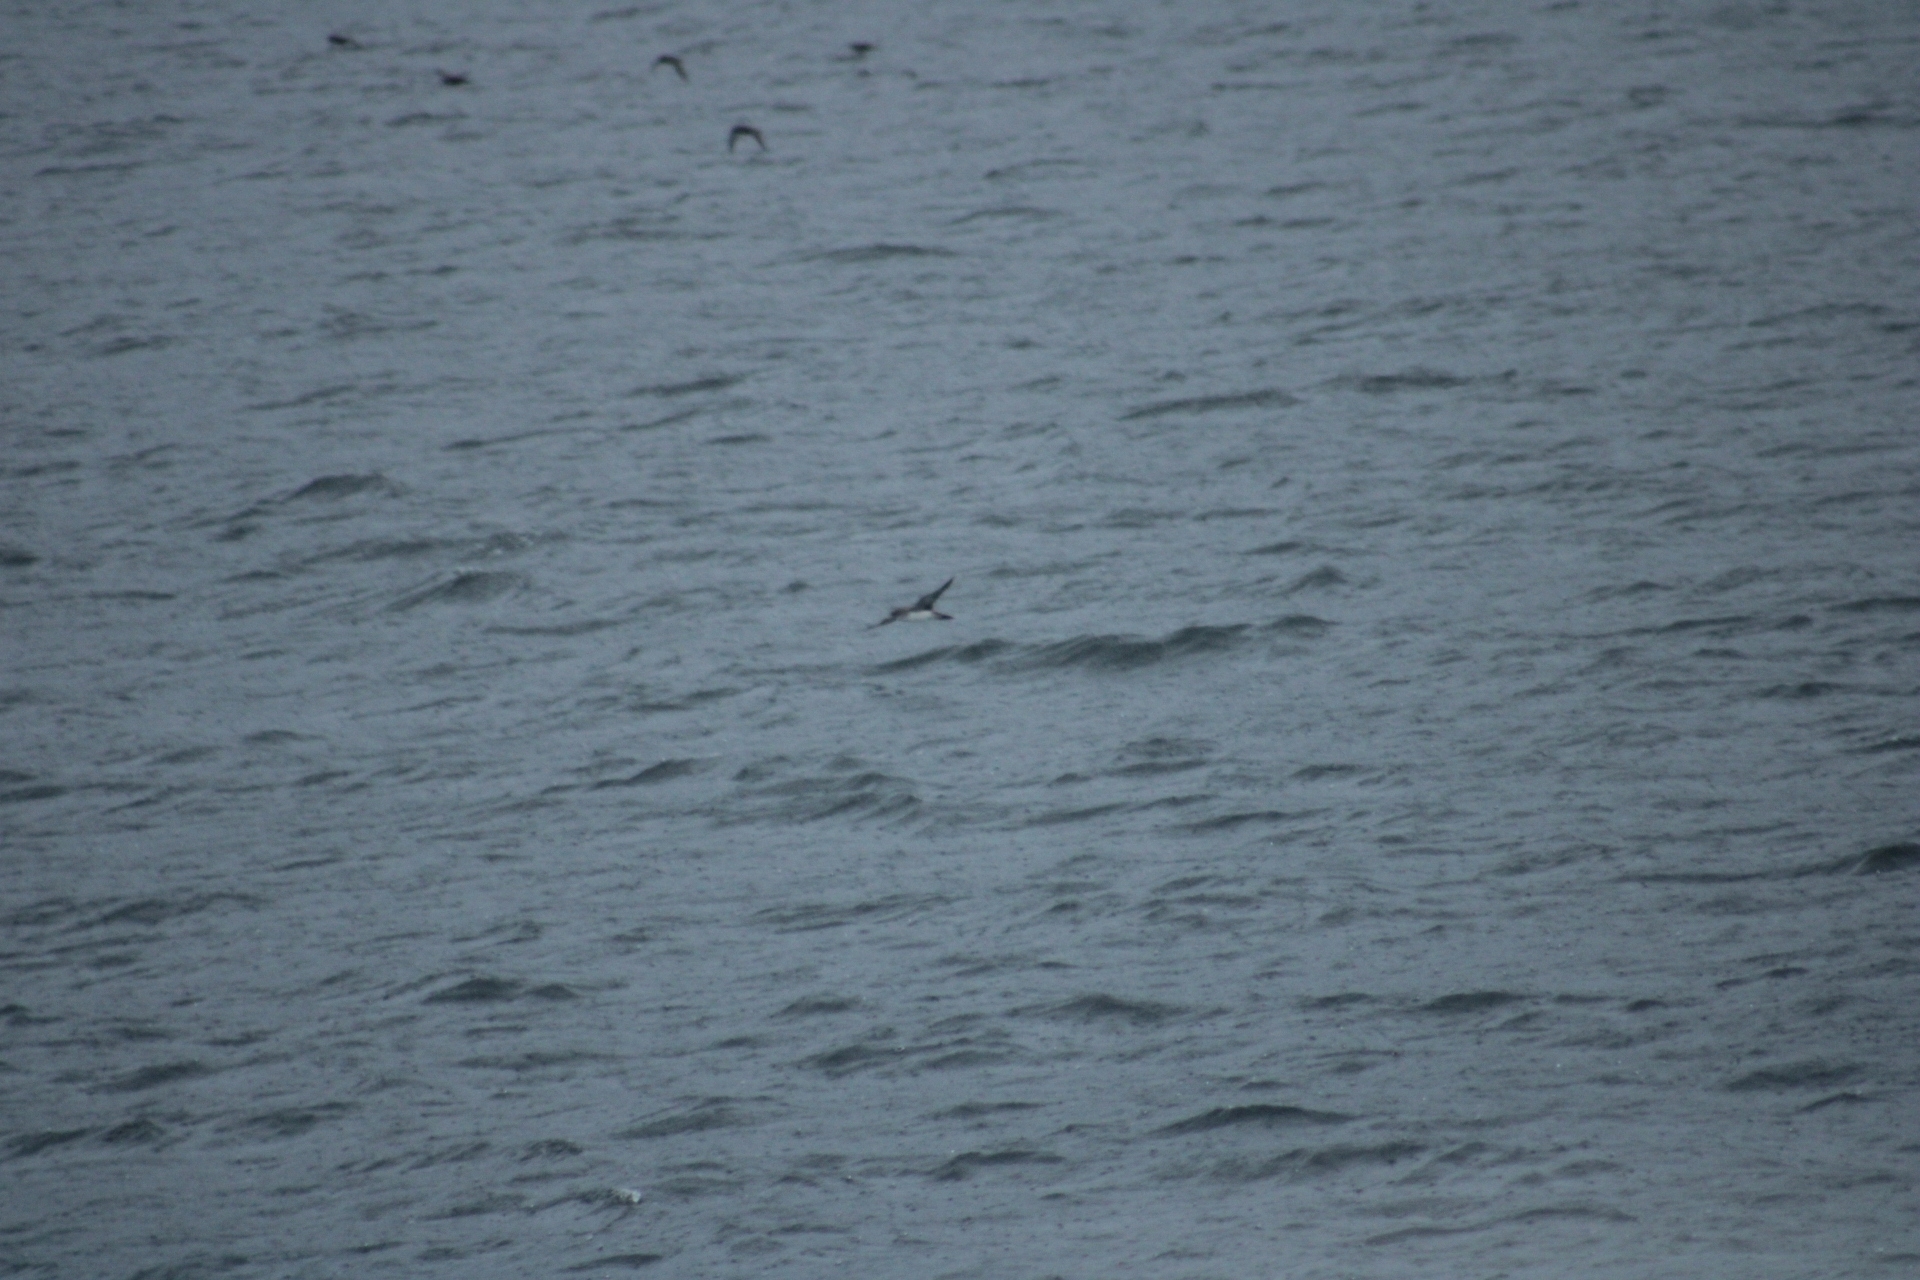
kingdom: Animalia
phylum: Chordata
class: Aves
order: Procellariiformes
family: Procellariidae
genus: Puffinus
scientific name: Puffinus creatopus
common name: Pink-footed shearwater
